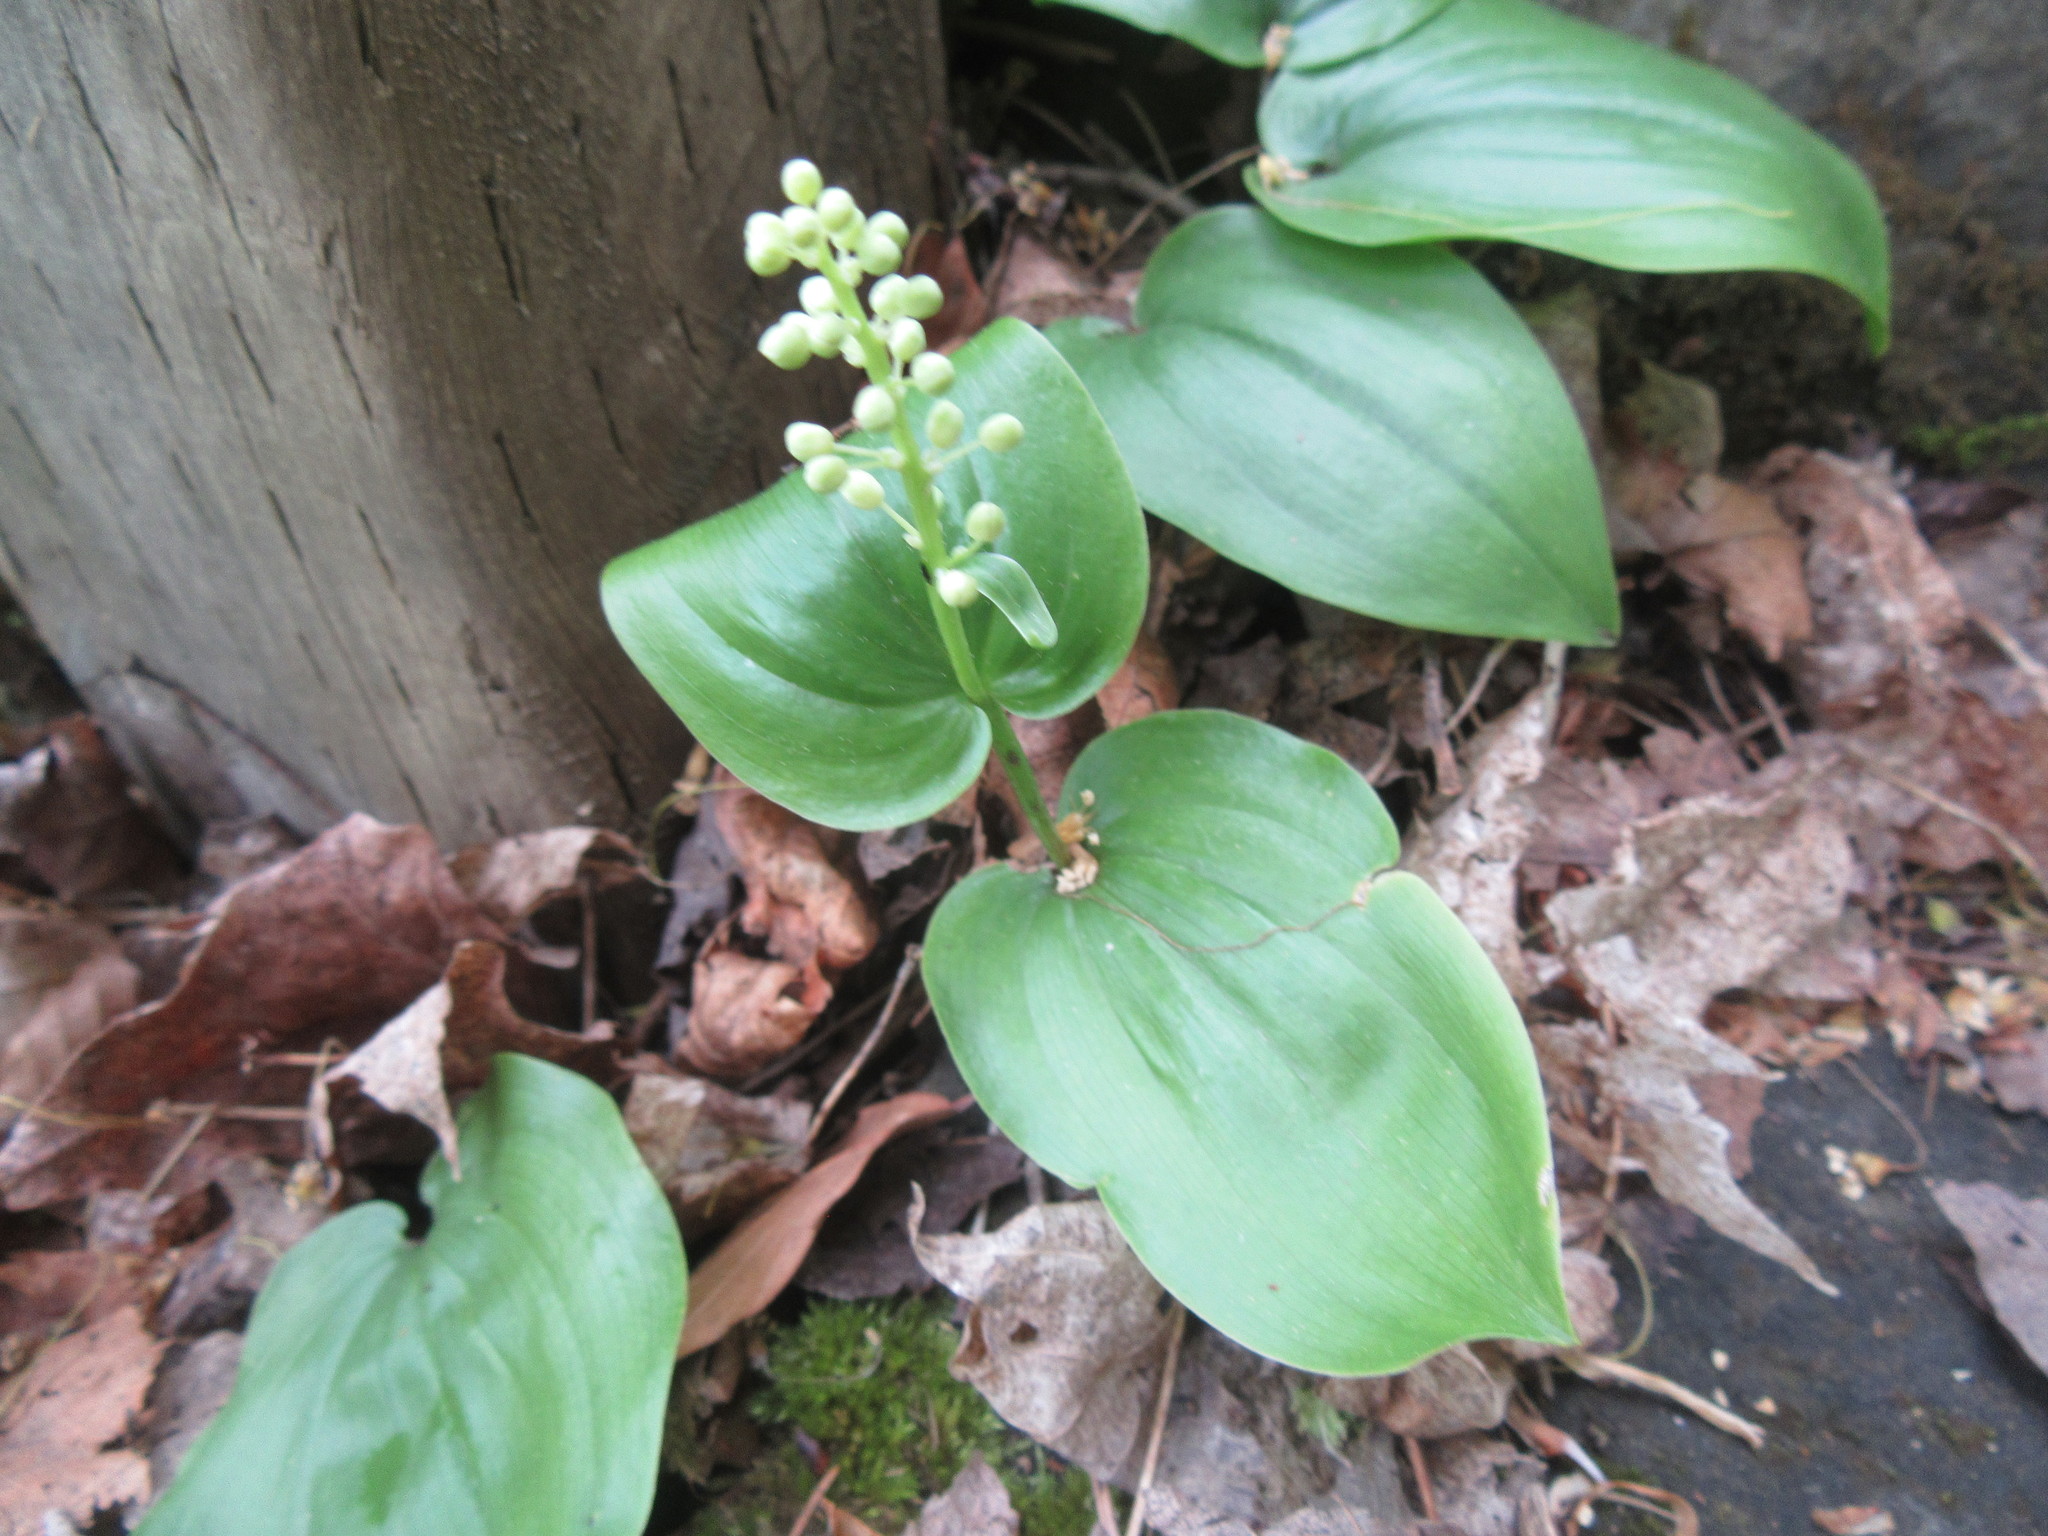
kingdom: Plantae
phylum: Tracheophyta
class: Liliopsida
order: Asparagales
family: Asparagaceae
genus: Maianthemum
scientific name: Maianthemum canadense
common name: False lily-of-the-valley
